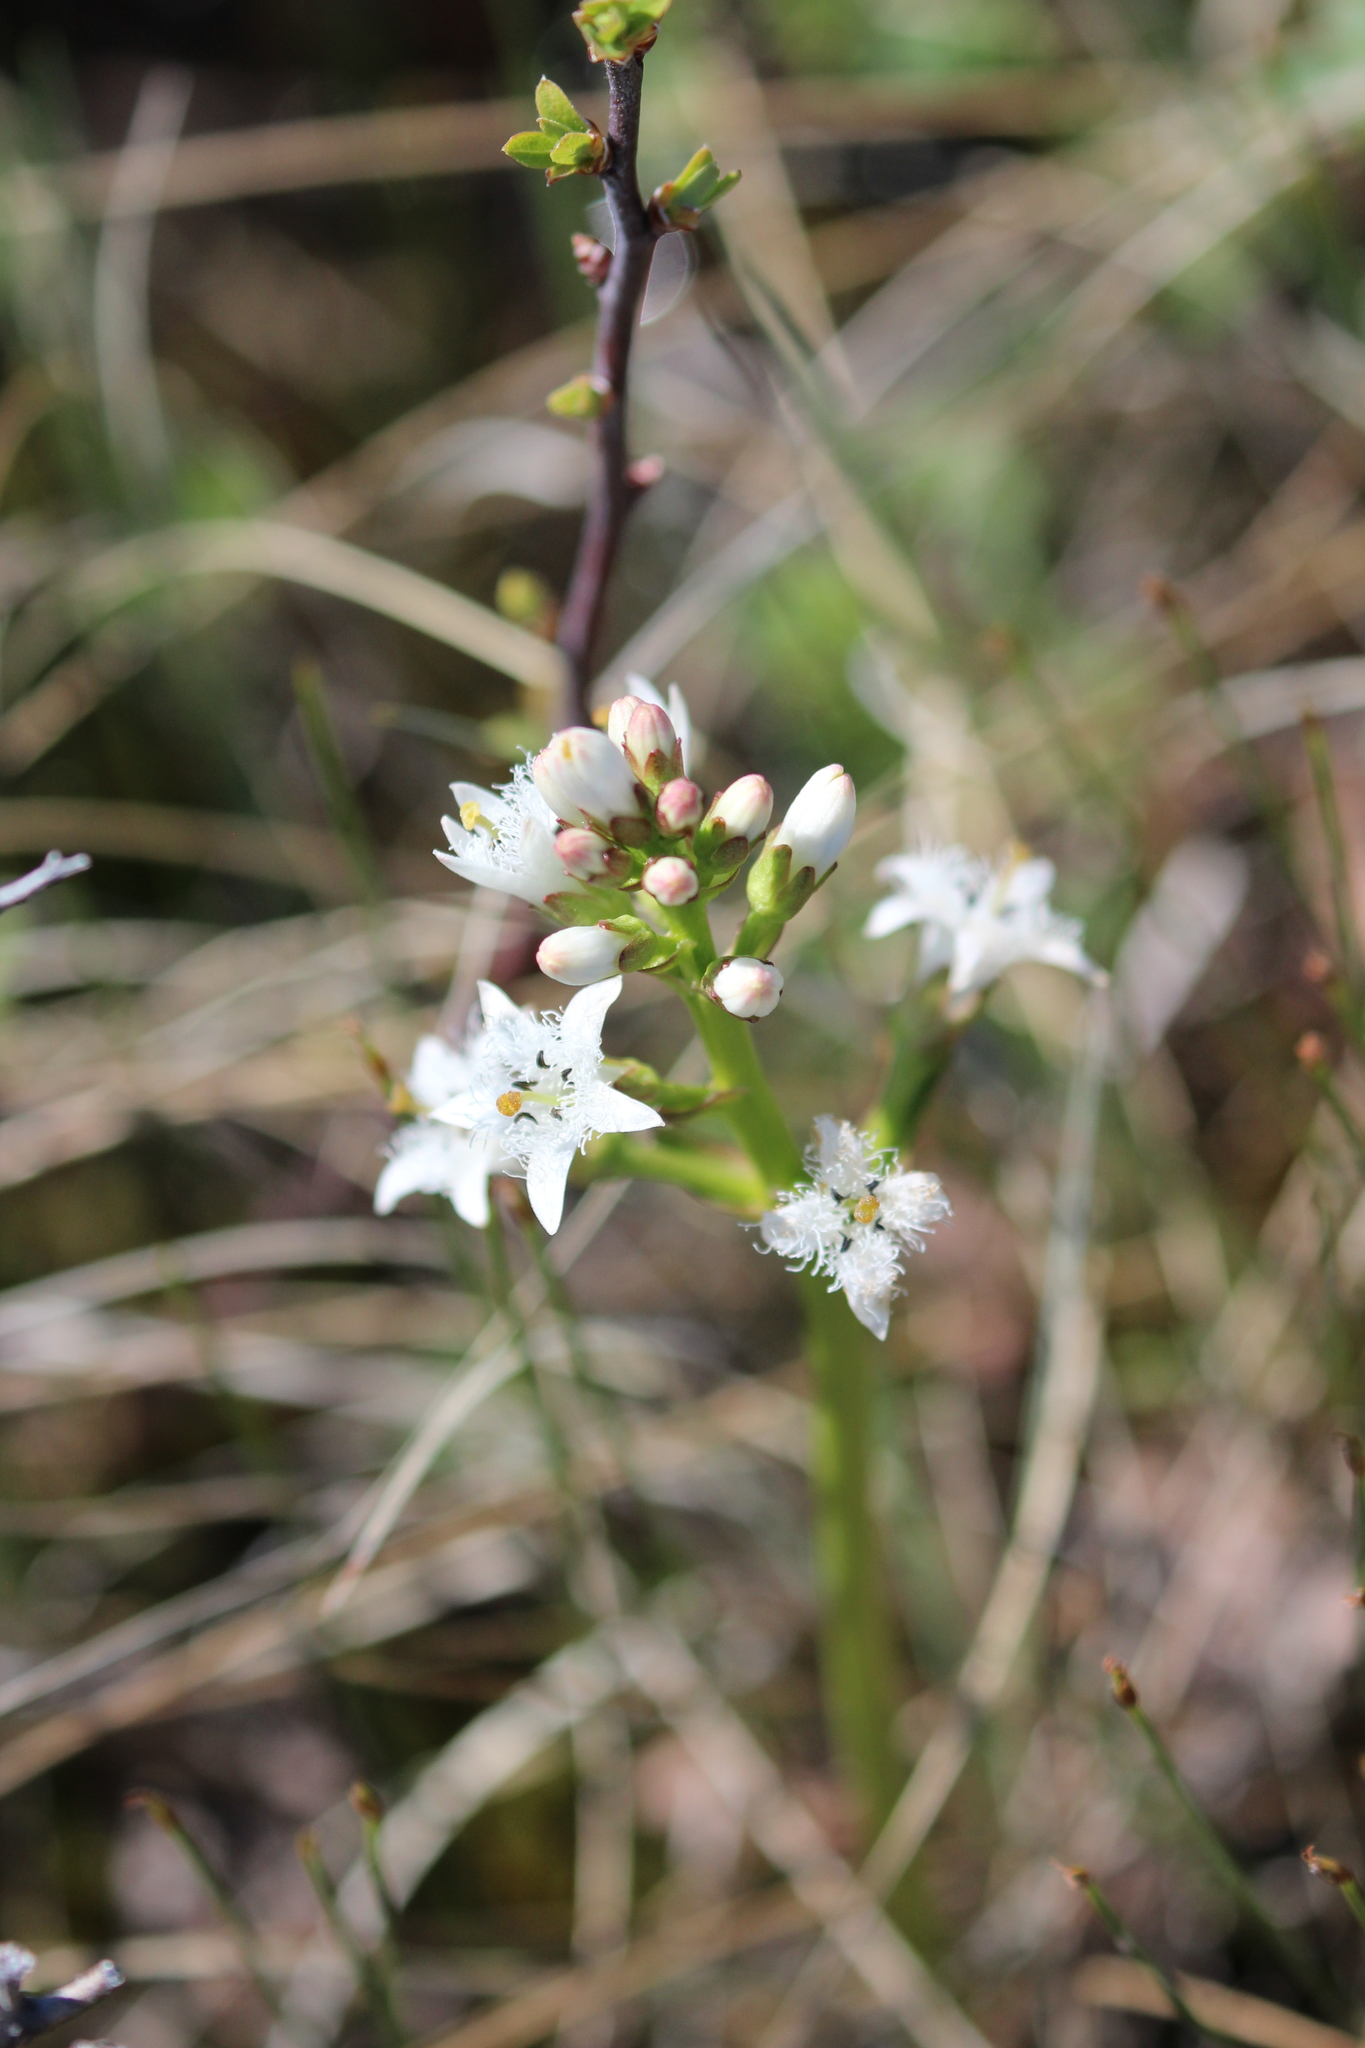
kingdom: Plantae
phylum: Tracheophyta
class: Magnoliopsida
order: Asterales
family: Menyanthaceae
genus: Menyanthes
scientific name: Menyanthes trifoliata
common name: Bogbean
